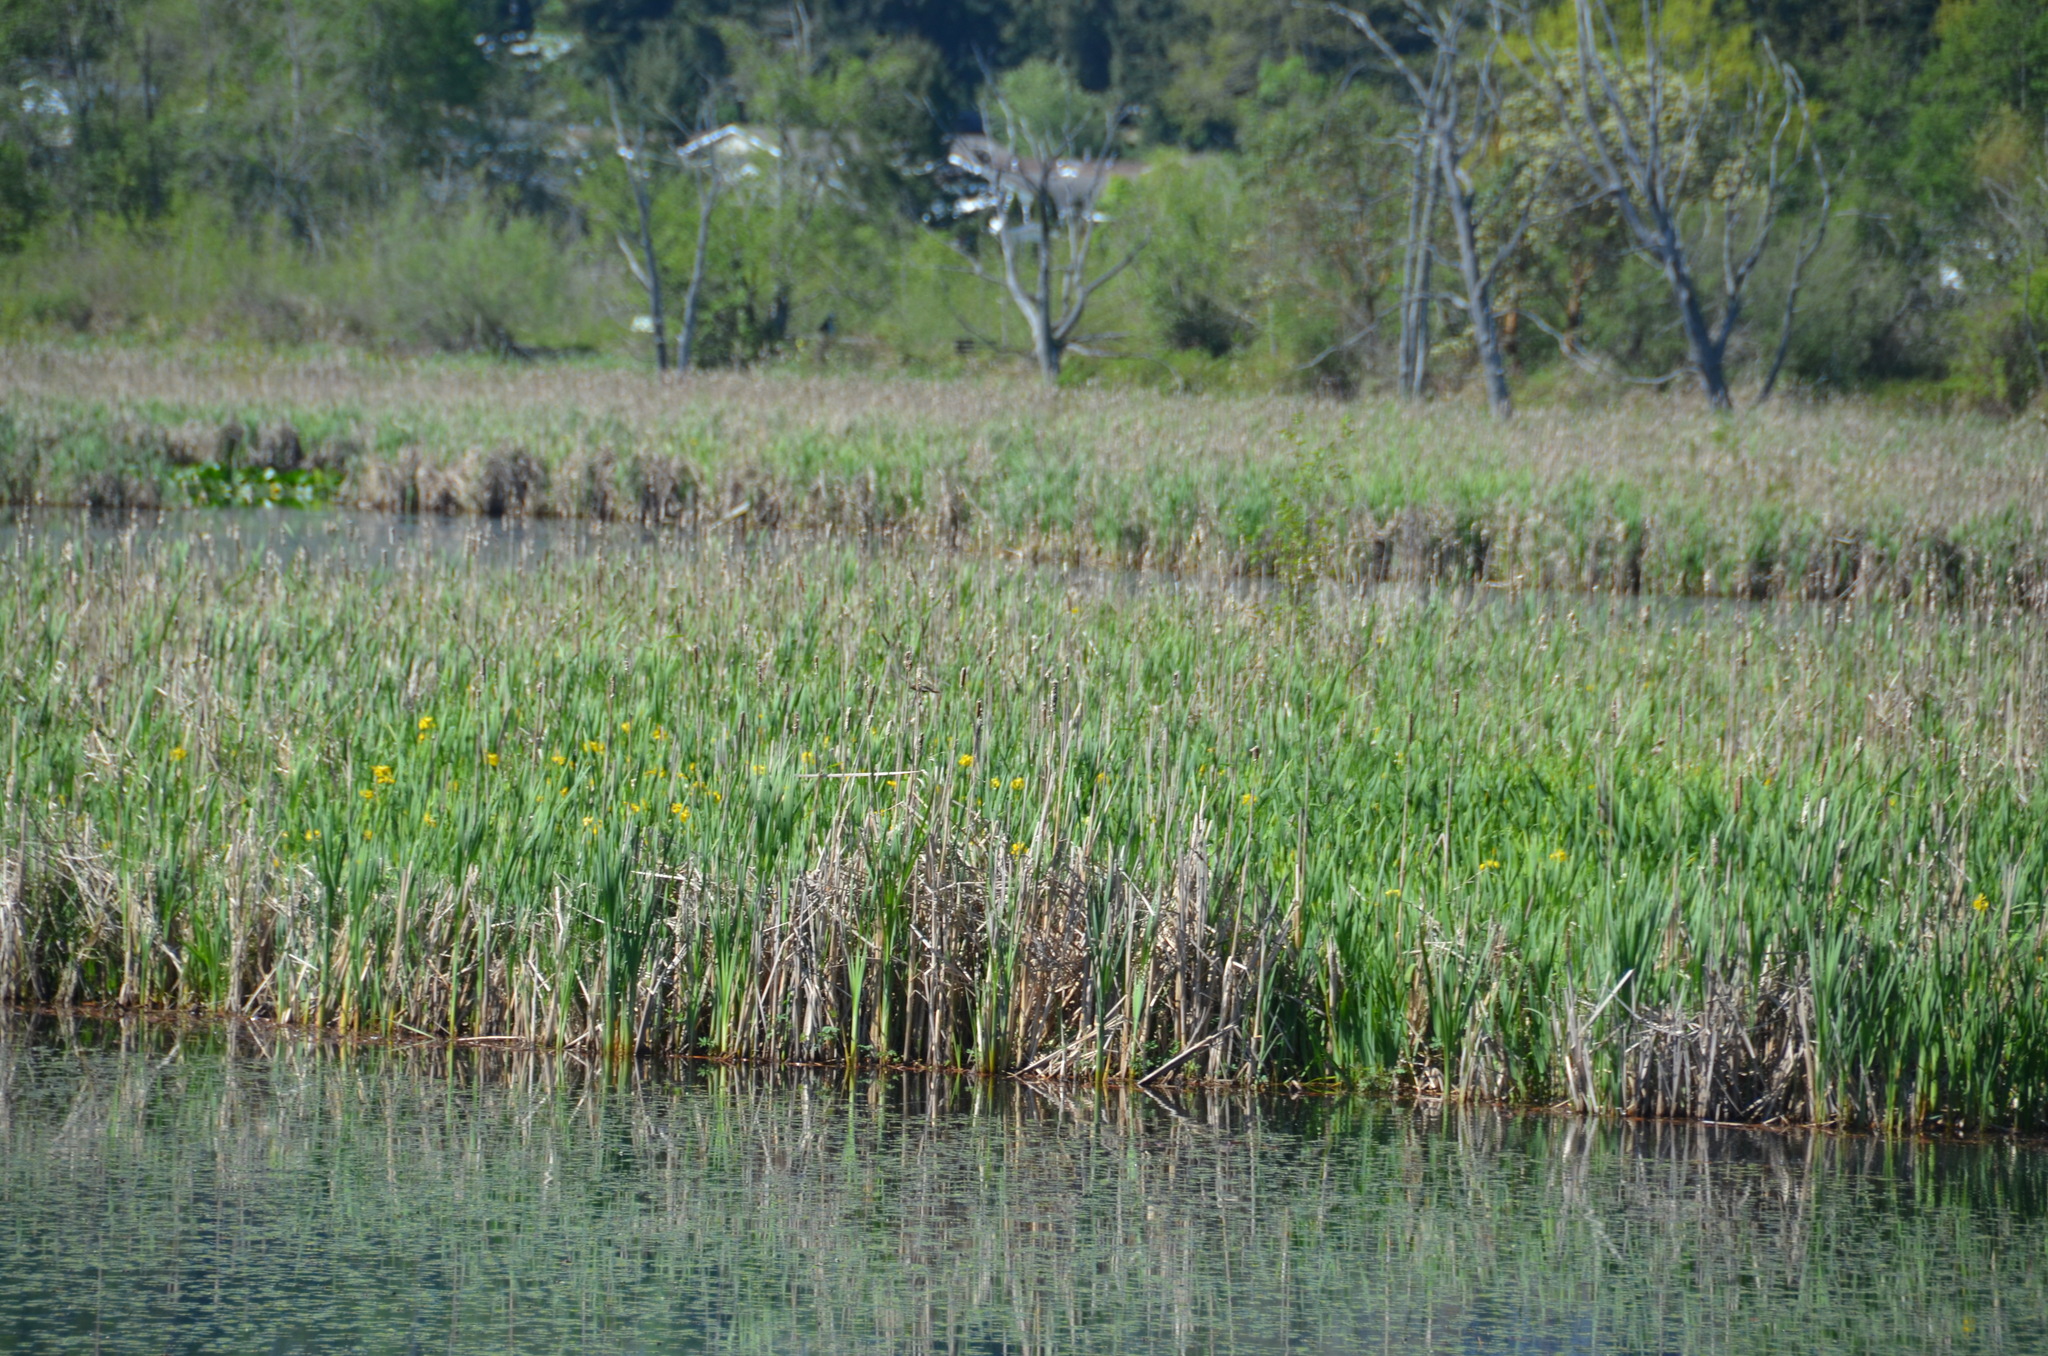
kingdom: Plantae
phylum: Tracheophyta
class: Liliopsida
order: Asparagales
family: Iridaceae
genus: Iris
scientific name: Iris pseudacorus
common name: Yellow flag
